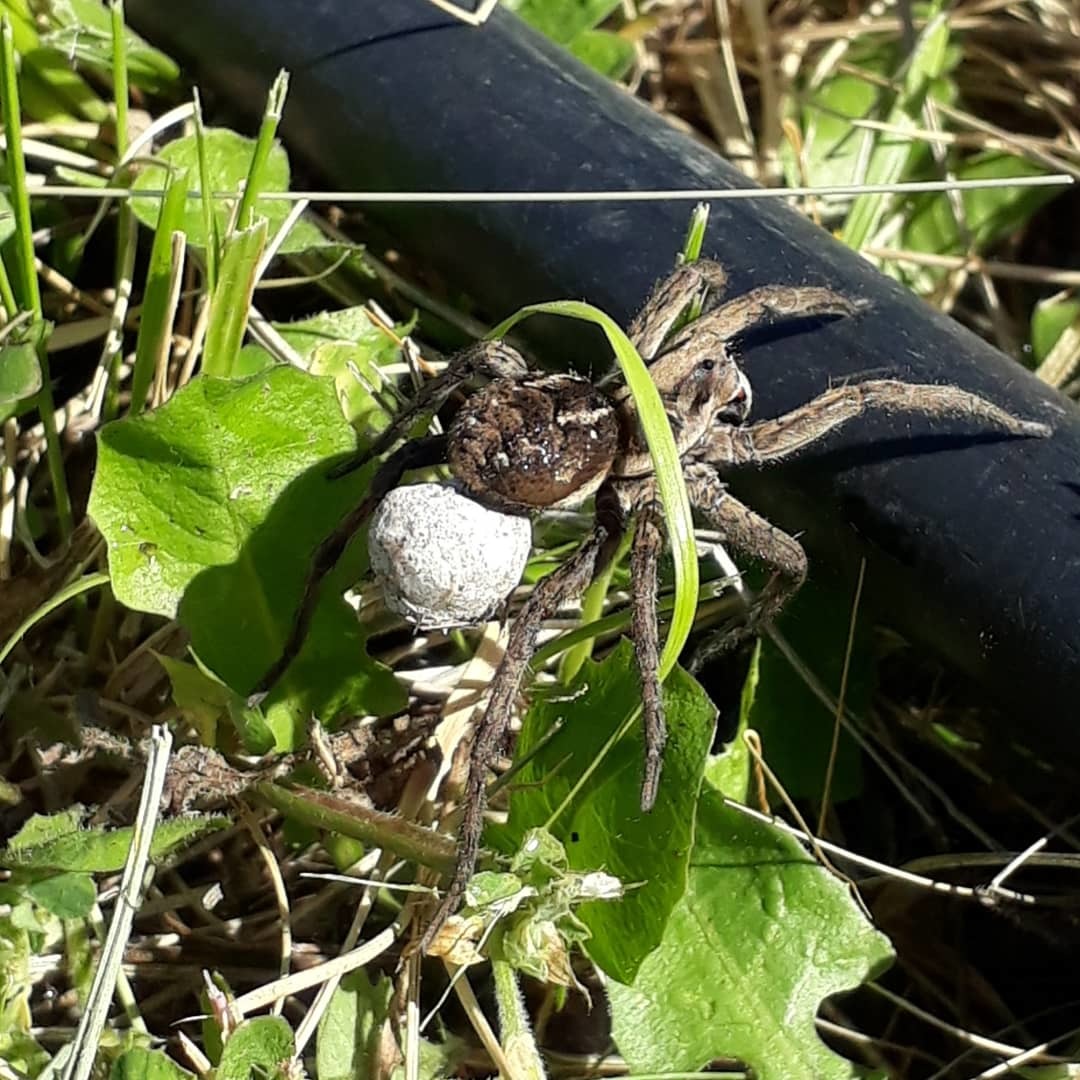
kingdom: Animalia
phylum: Arthropoda
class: Arachnida
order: Araneae
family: Lycosidae
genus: Lycosa
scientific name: Lycosa pampeana
